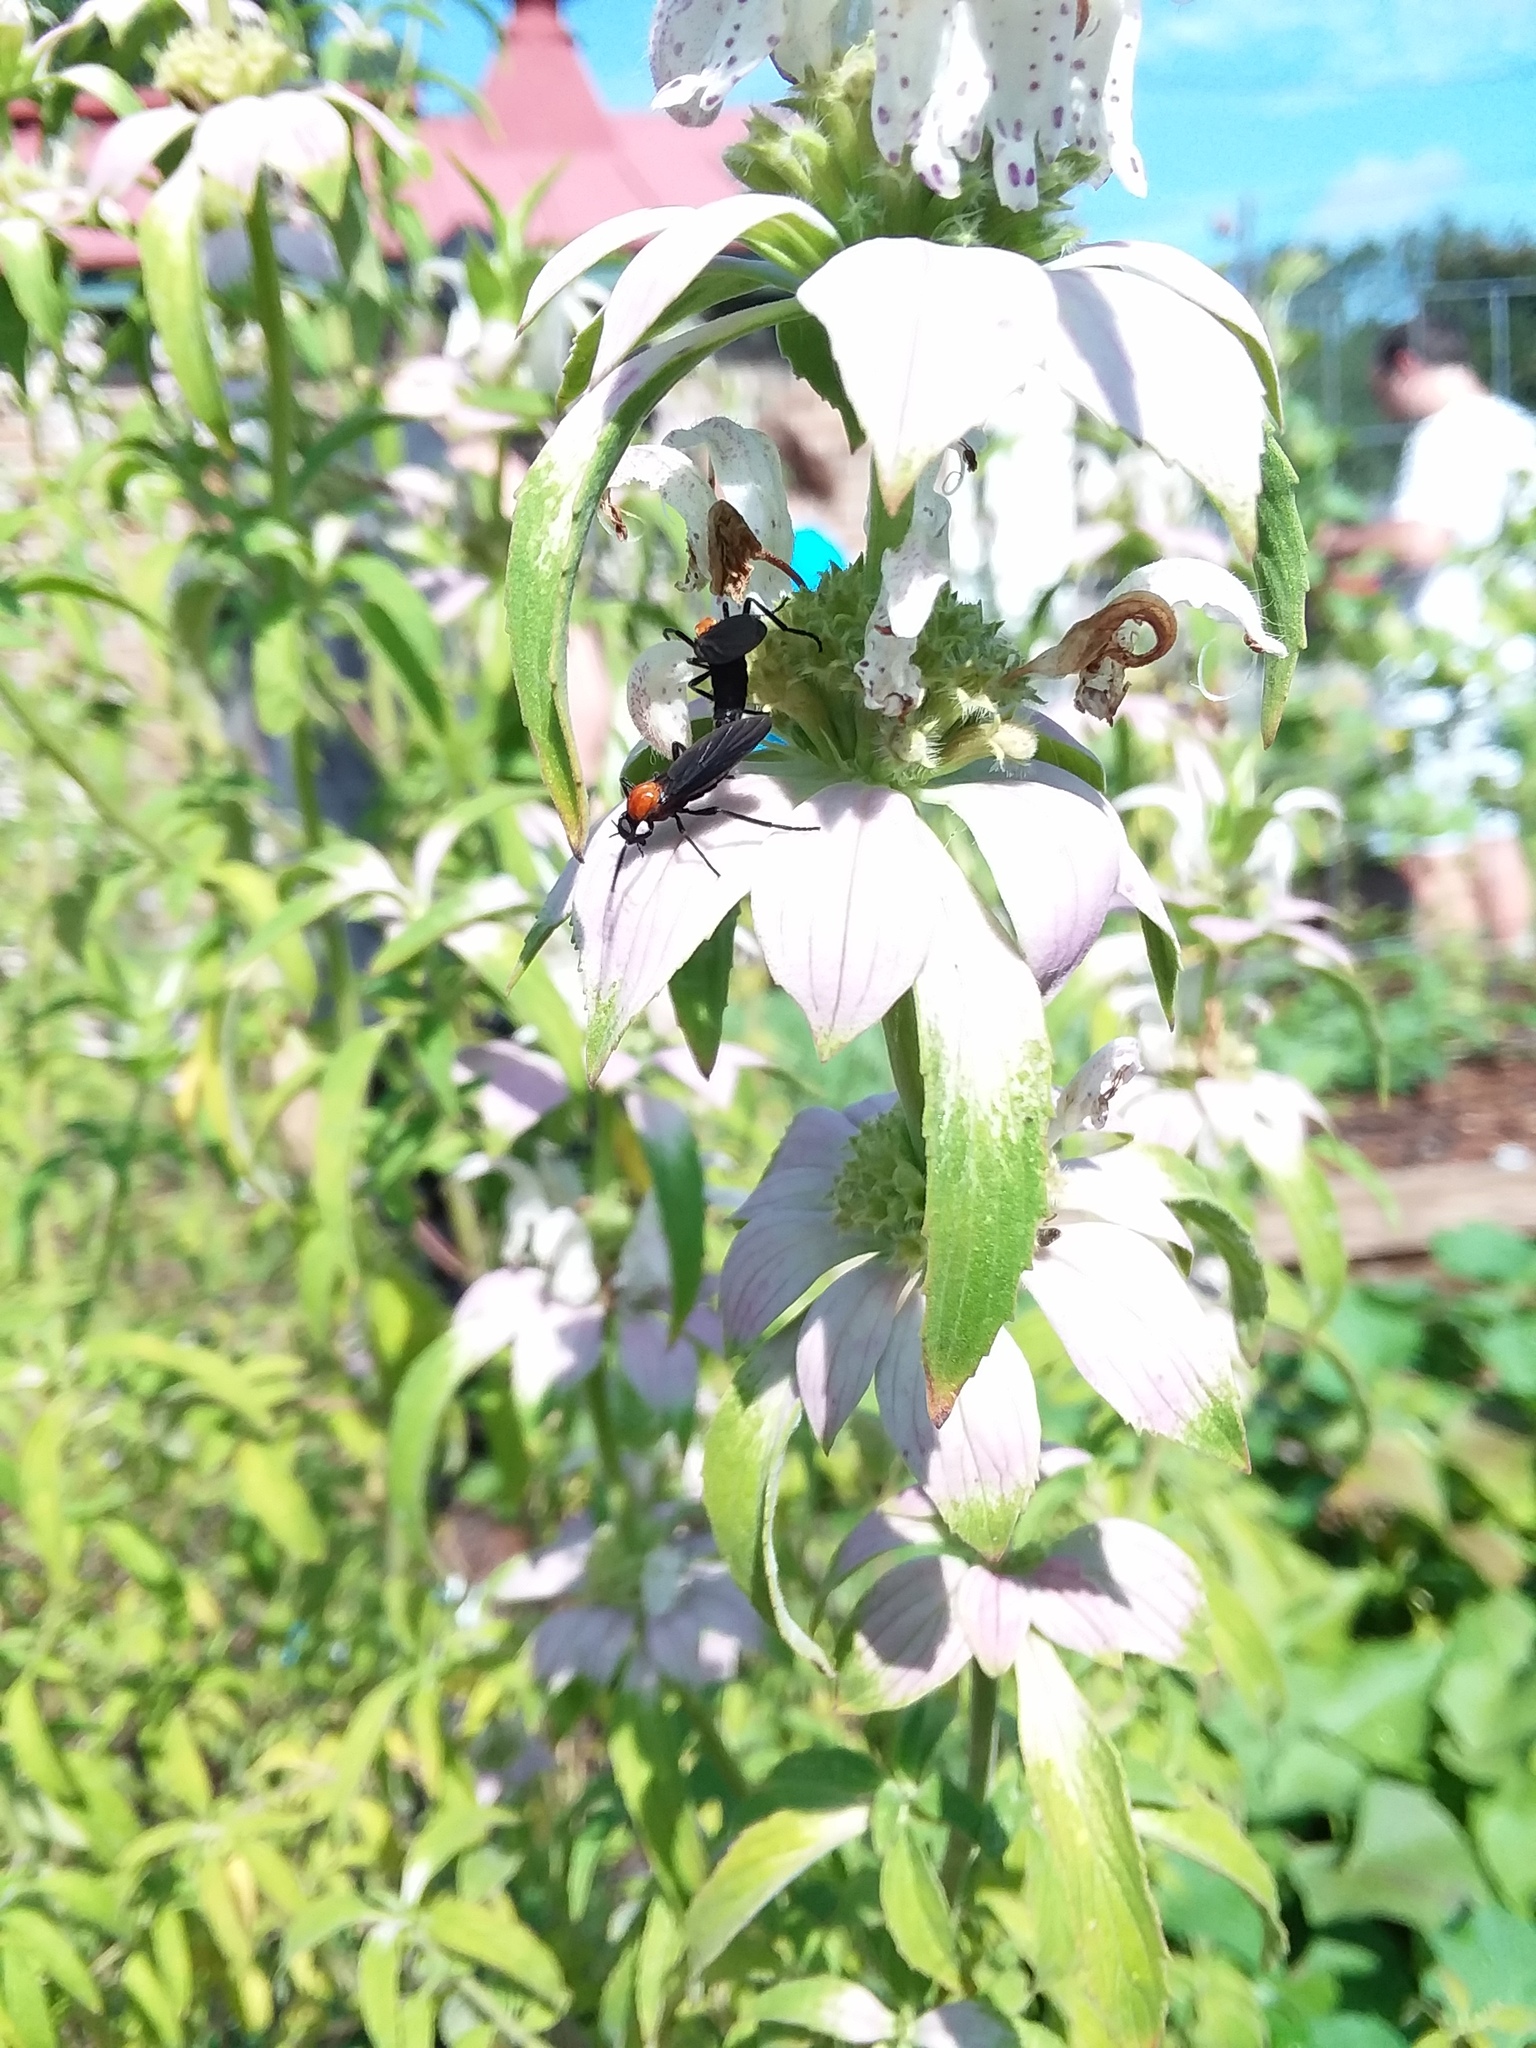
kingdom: Animalia
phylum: Arthropoda
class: Insecta
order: Diptera
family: Bibionidae
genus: Plecia
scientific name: Plecia nearctica
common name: March fly
